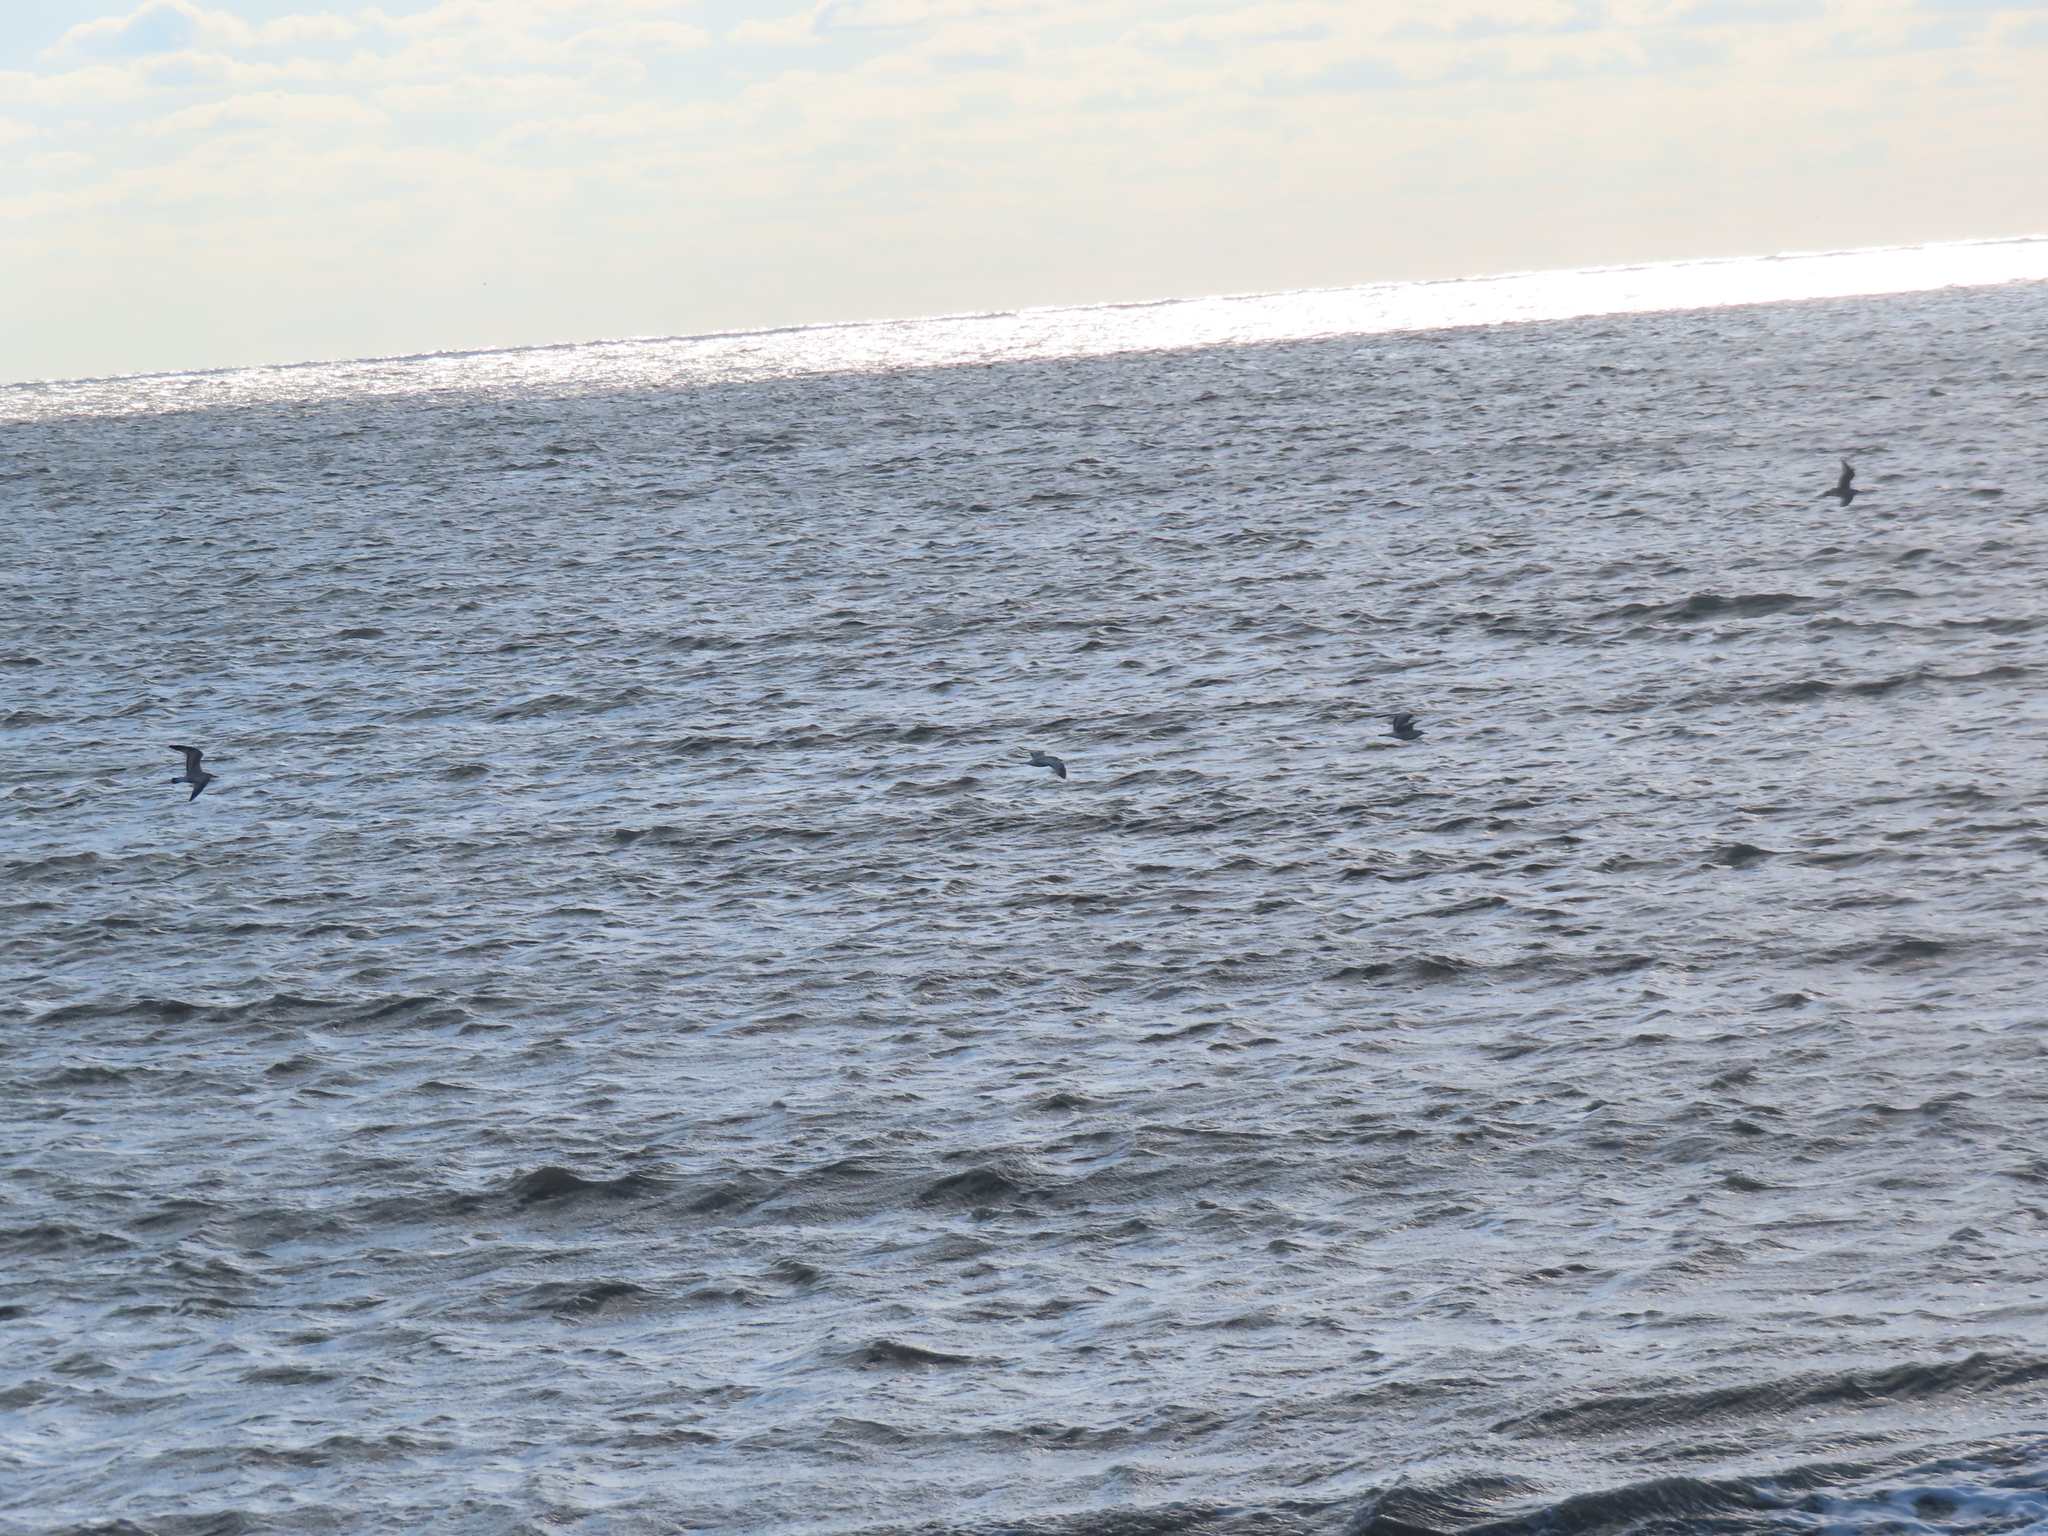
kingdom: Animalia
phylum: Chordata
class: Aves
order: Charadriiformes
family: Laridae
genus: Larus
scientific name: Larus delawarensis
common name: Ring-billed gull
